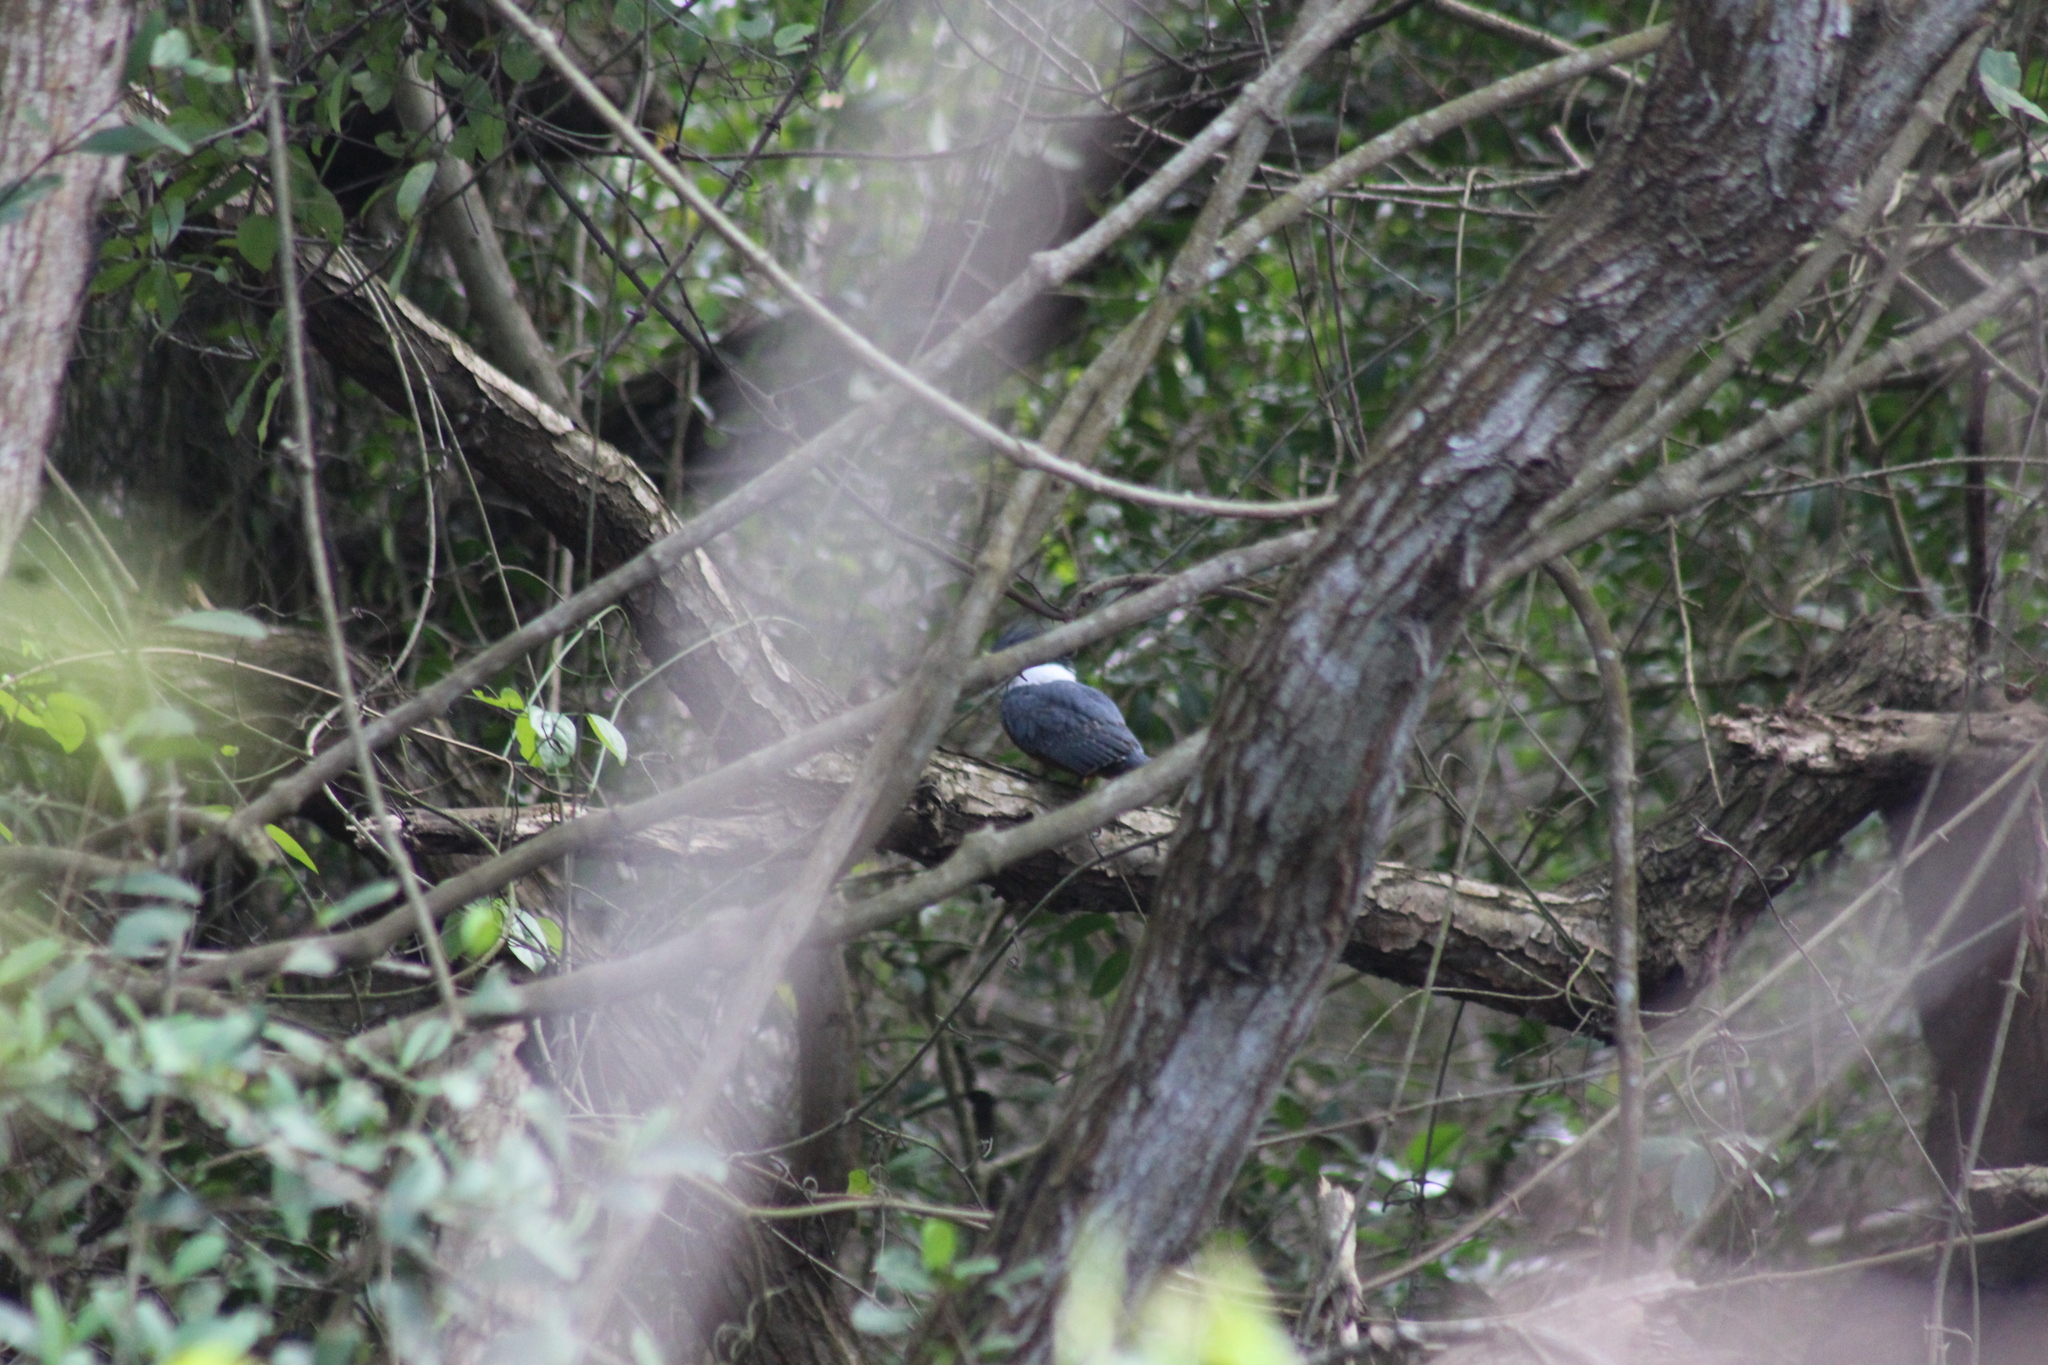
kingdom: Animalia
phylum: Chordata
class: Aves
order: Coraciiformes
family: Alcedinidae
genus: Megaceryle
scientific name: Megaceryle torquata
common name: Ringed kingfisher
